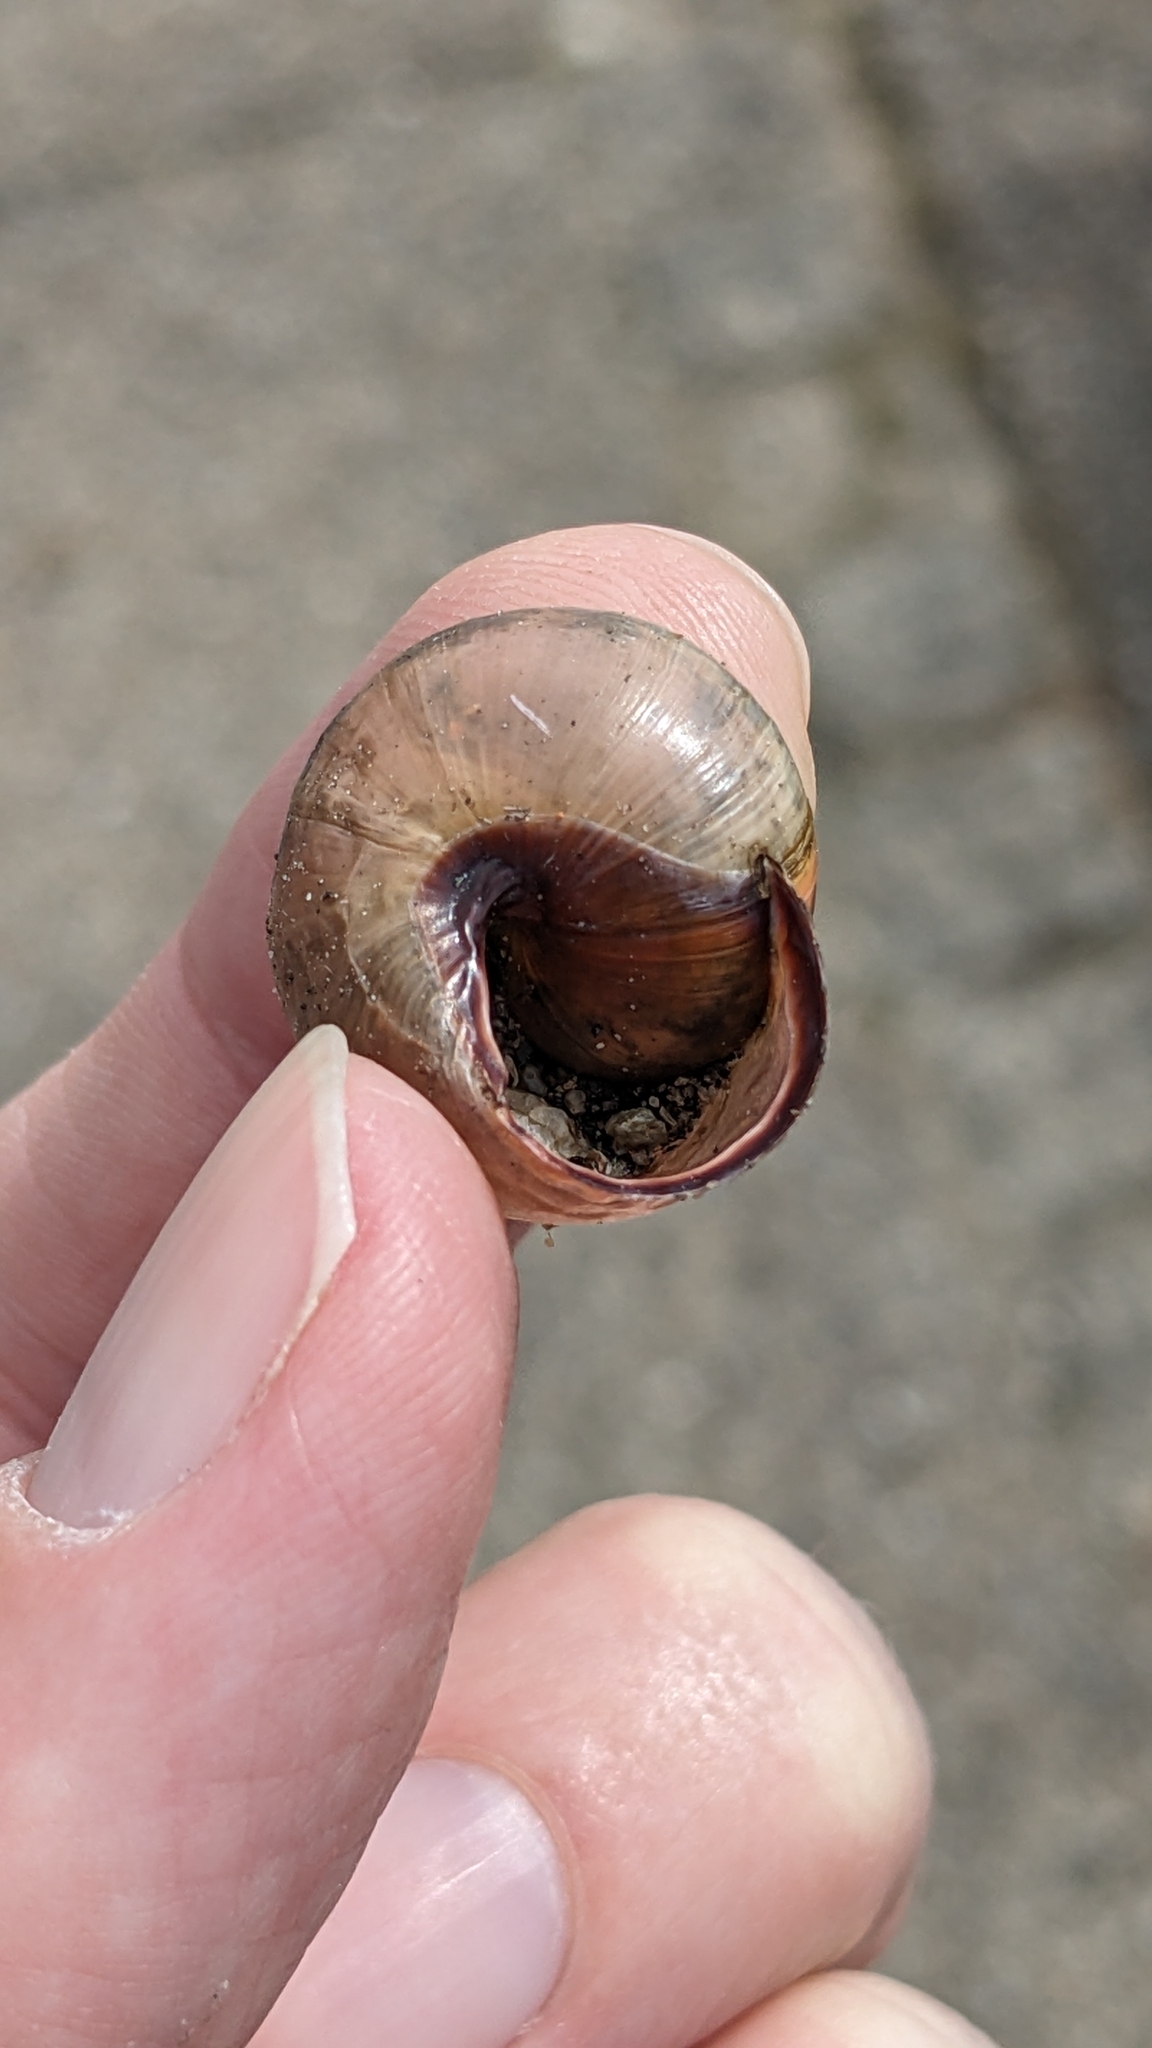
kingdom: Animalia
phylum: Mollusca
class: Gastropoda
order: Stylommatophora
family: Helicidae
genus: Cepaea
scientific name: Cepaea nemoralis
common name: Grovesnail
